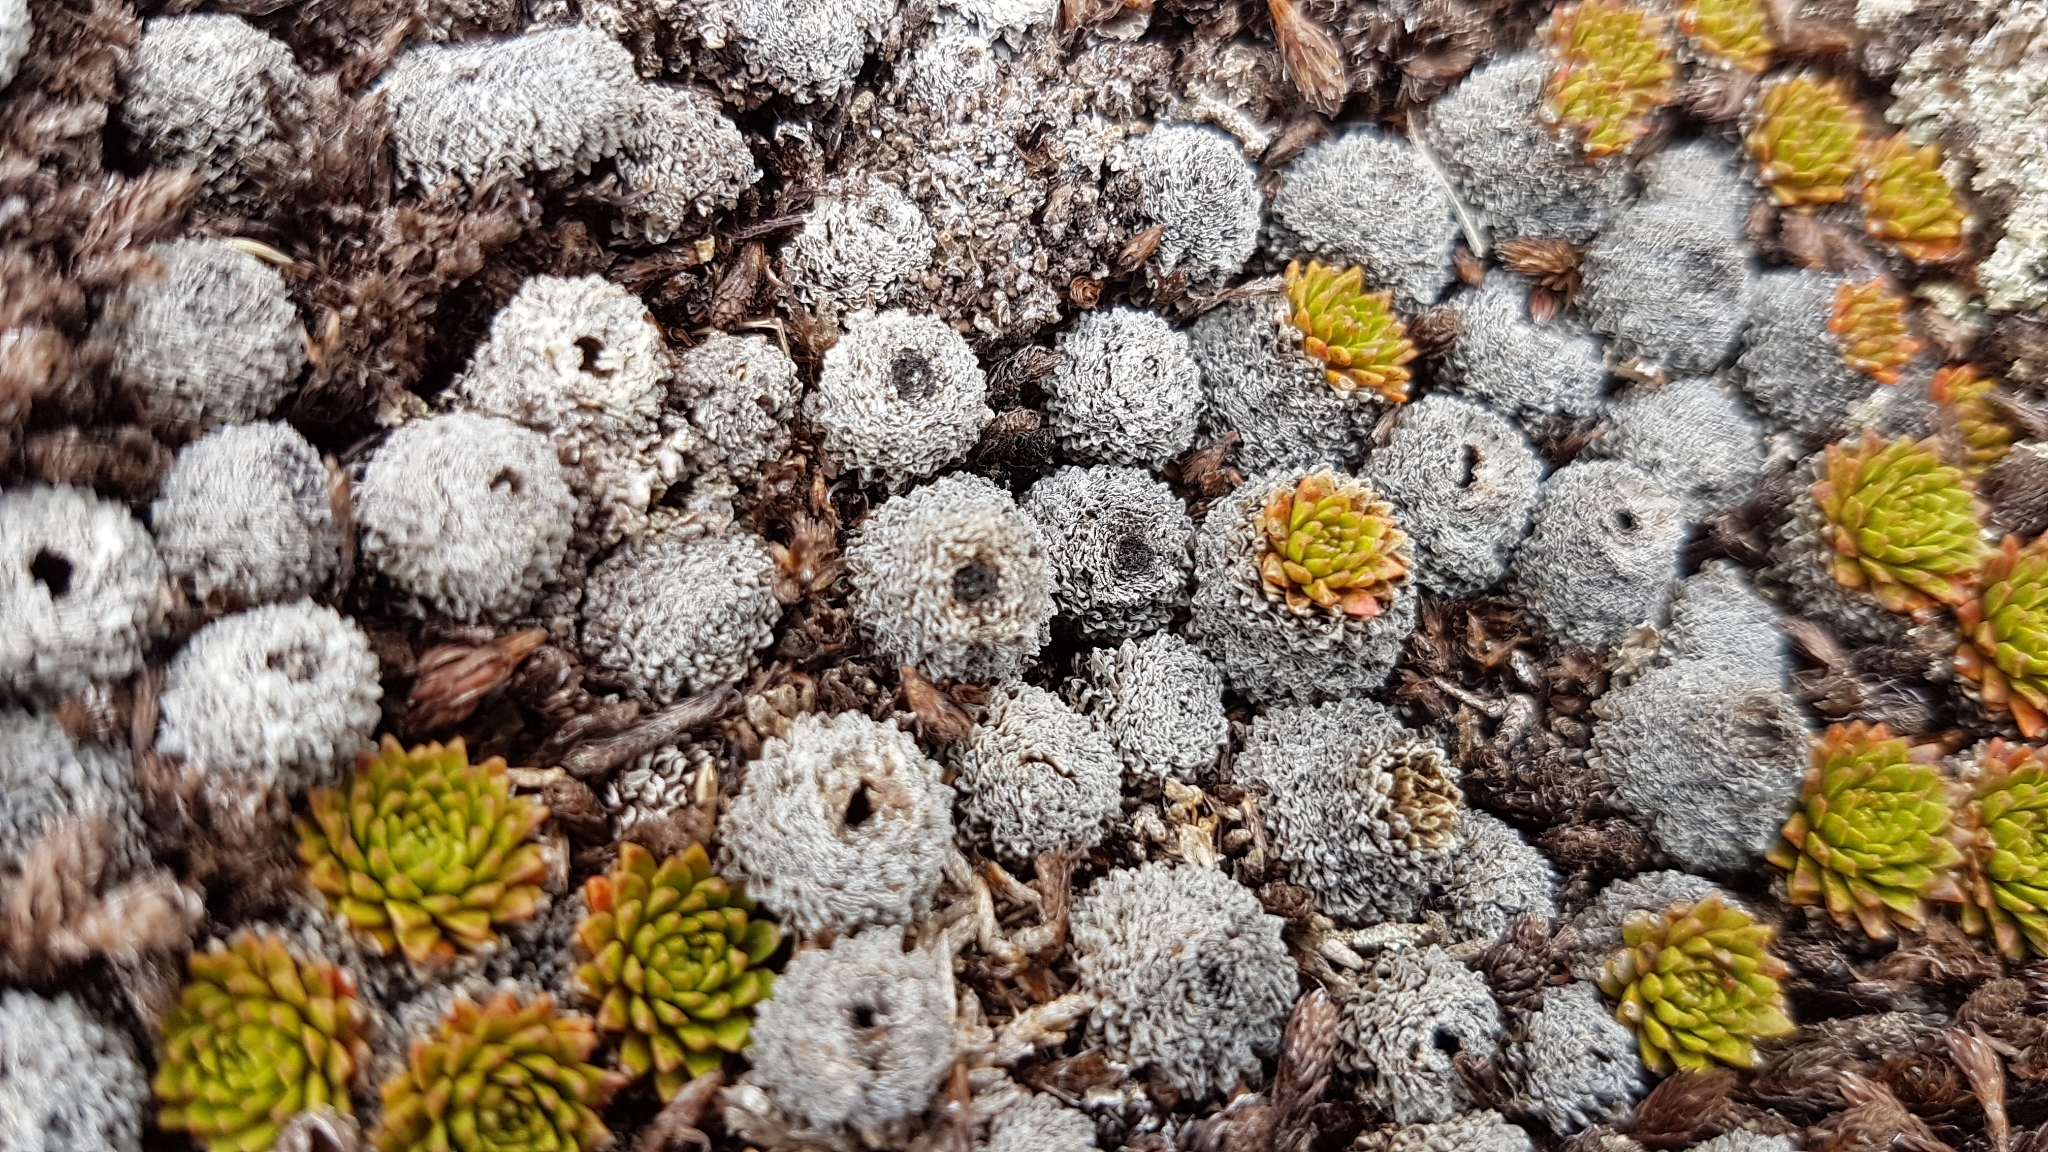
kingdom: Plantae
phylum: Tracheophyta
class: Magnoliopsida
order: Caryophyllales
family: Montiaceae
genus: Hectorella
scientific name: Hectorella caespitosa
